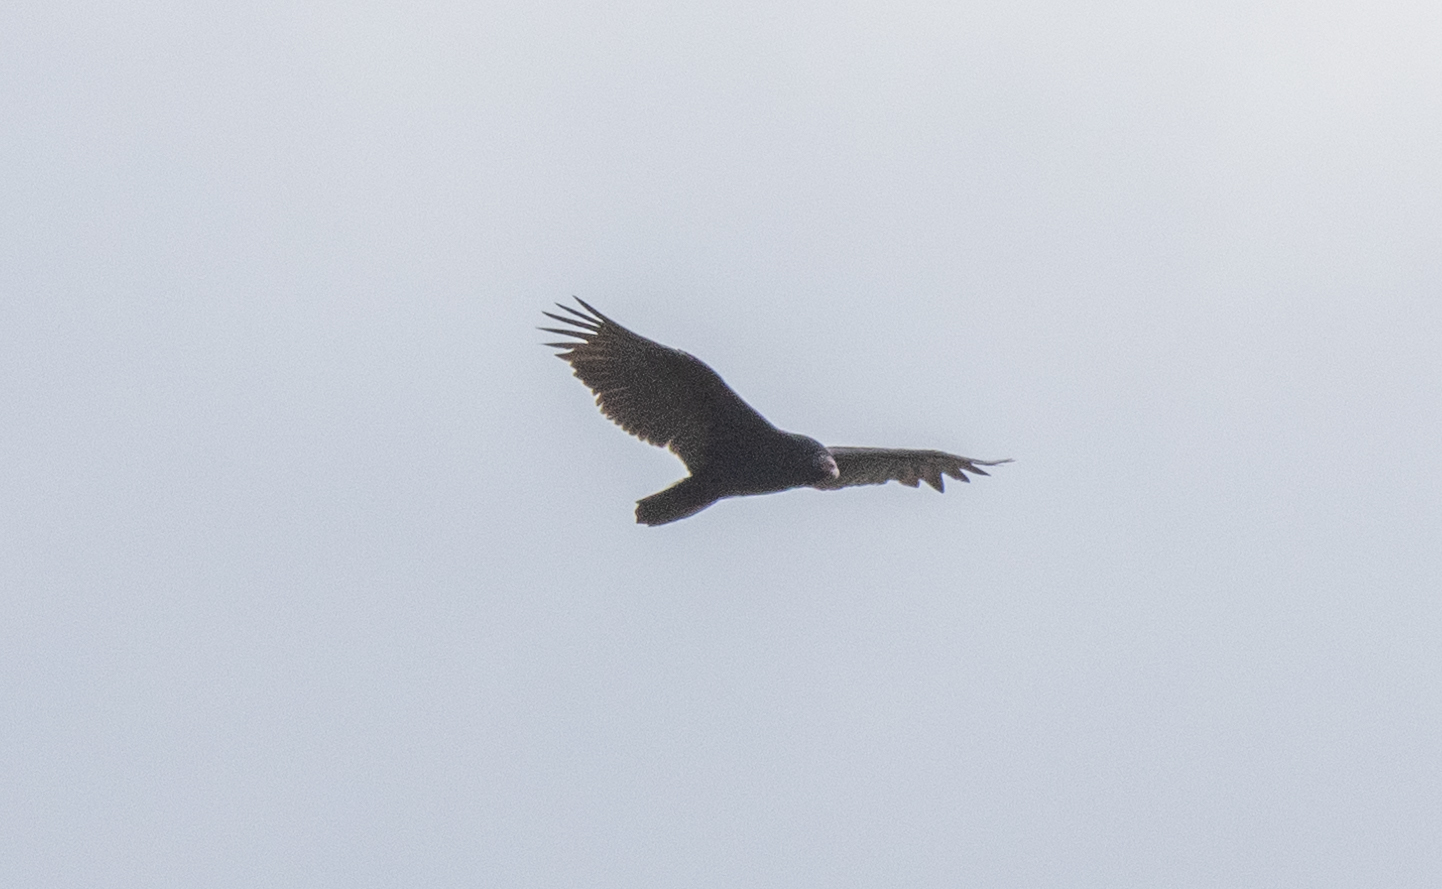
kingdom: Animalia
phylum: Chordata
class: Aves
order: Accipitriformes
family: Cathartidae
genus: Cathartes
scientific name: Cathartes aura
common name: Turkey vulture
